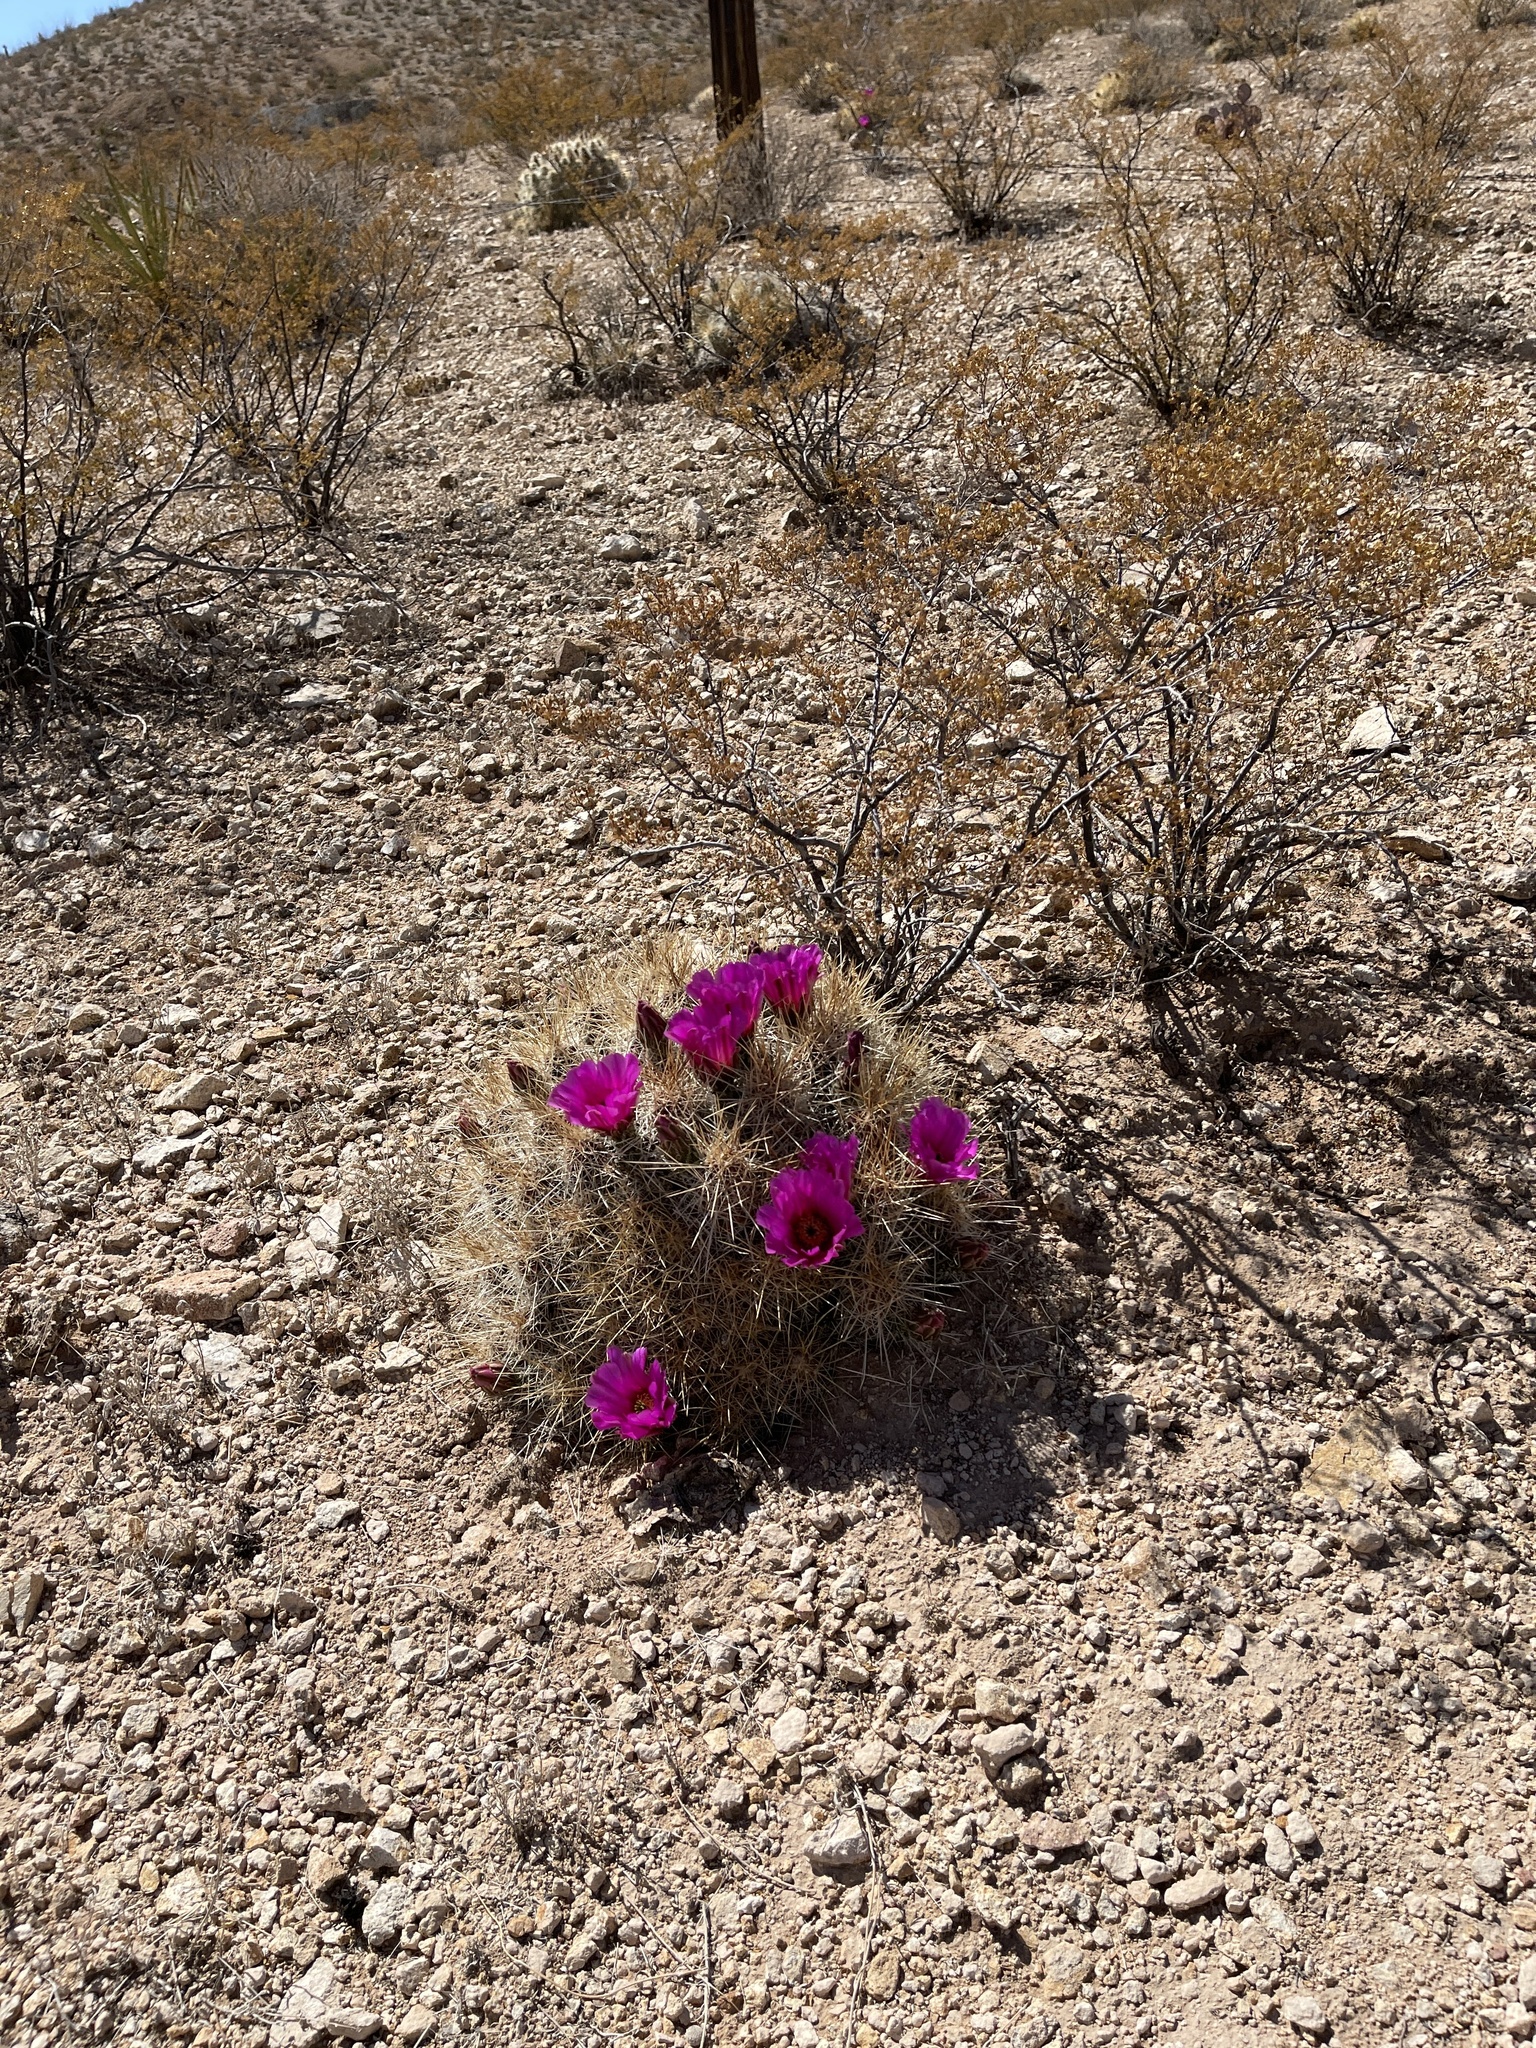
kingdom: Plantae
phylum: Tracheophyta
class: Magnoliopsida
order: Caryophyllales
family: Cactaceae
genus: Echinocereus
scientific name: Echinocereus stramineus
